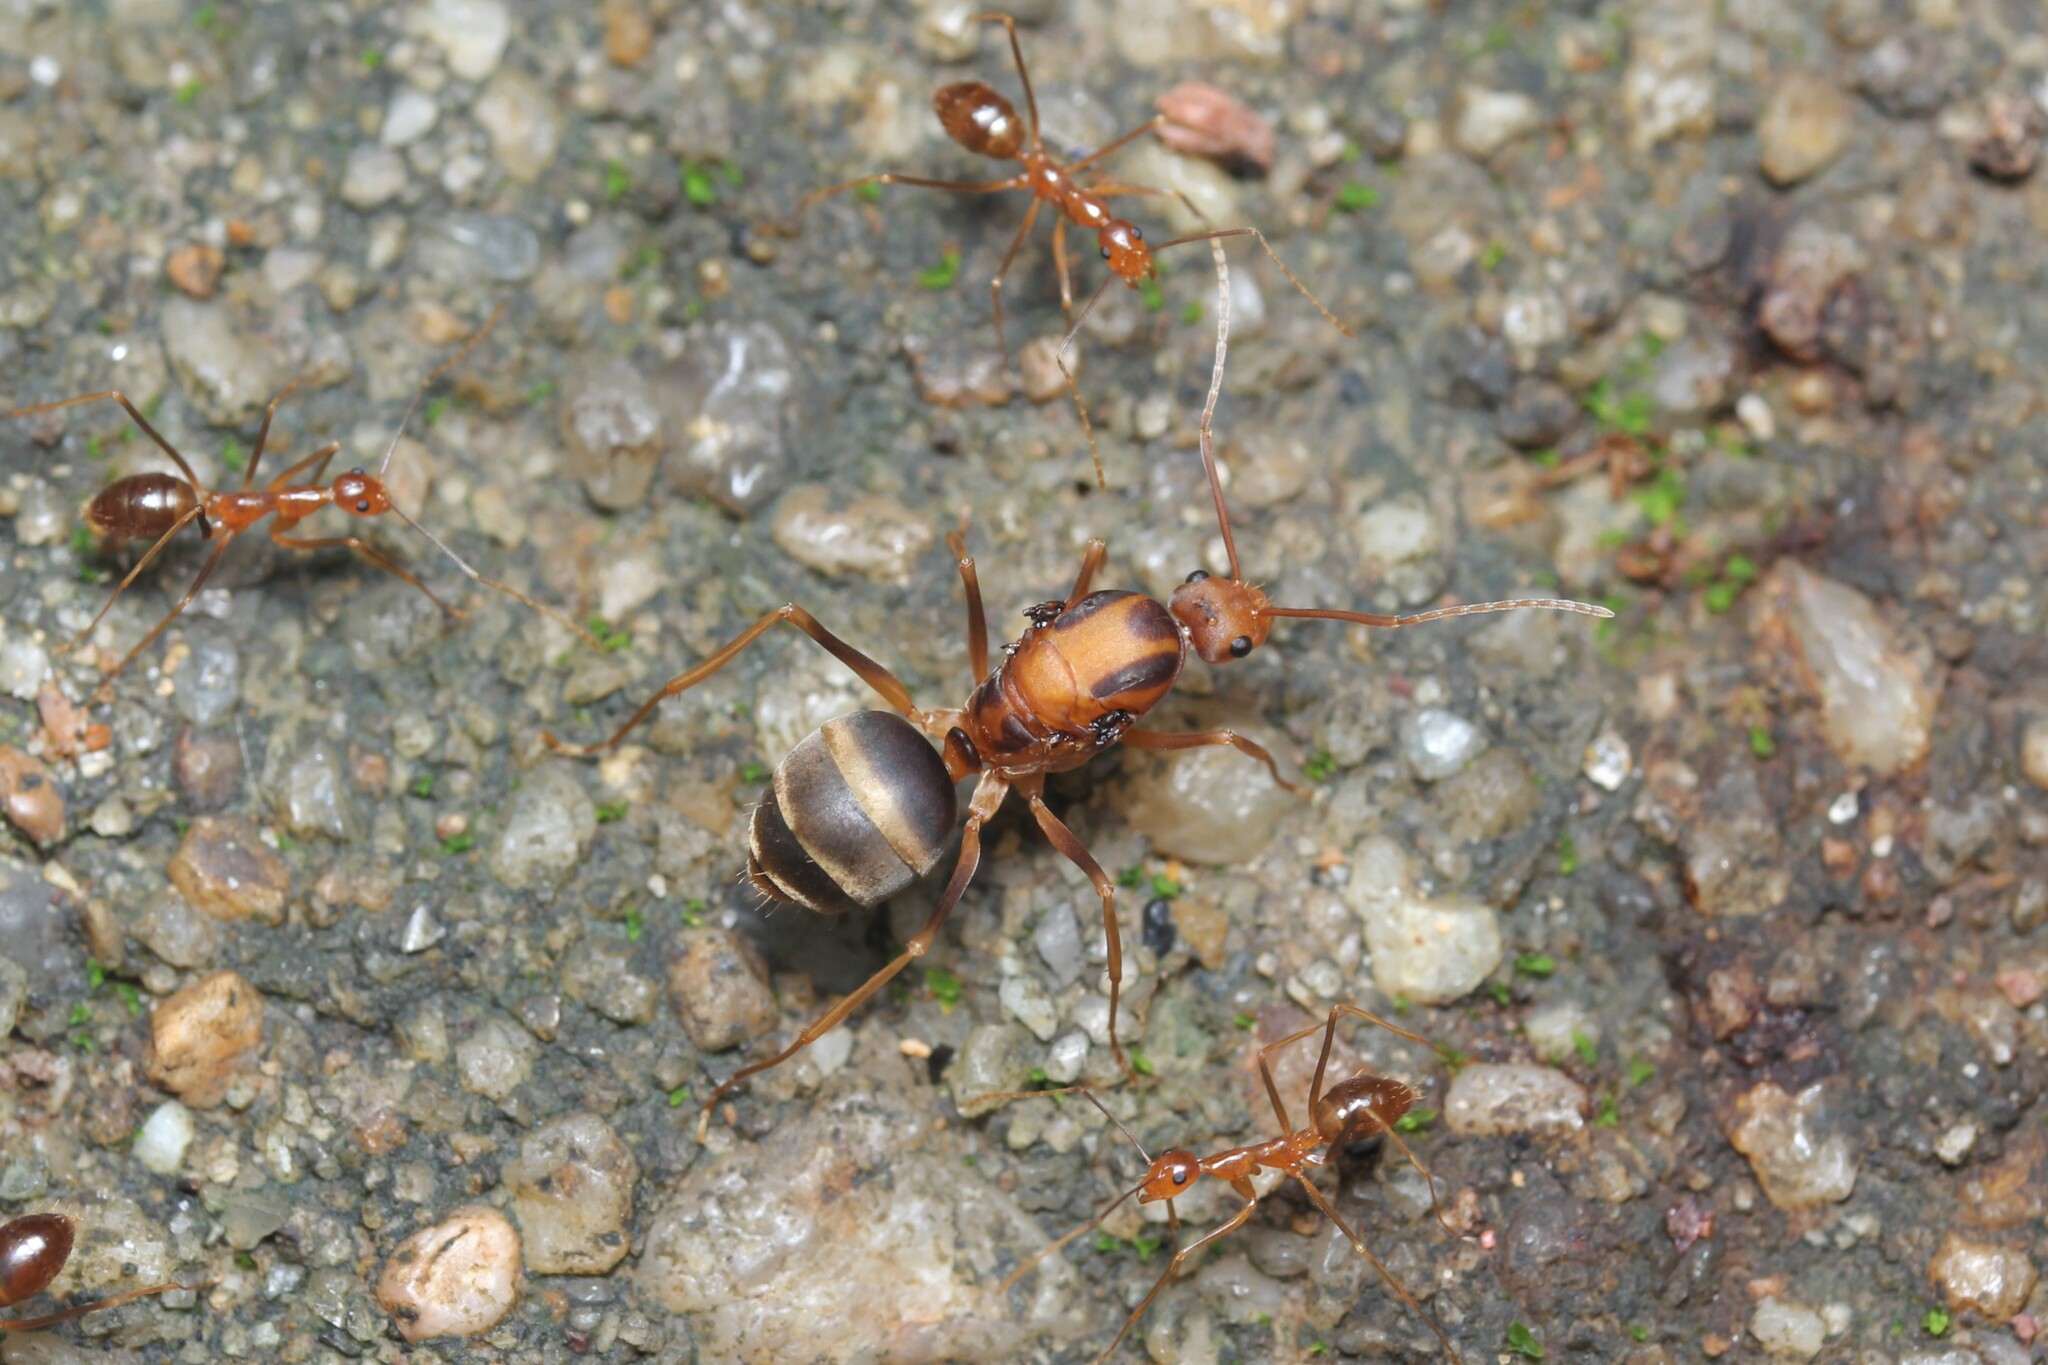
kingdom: Animalia
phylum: Arthropoda
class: Insecta
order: Hymenoptera
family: Formicidae
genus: Anoplolepis
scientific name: Anoplolepis gracilipes
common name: Ant
